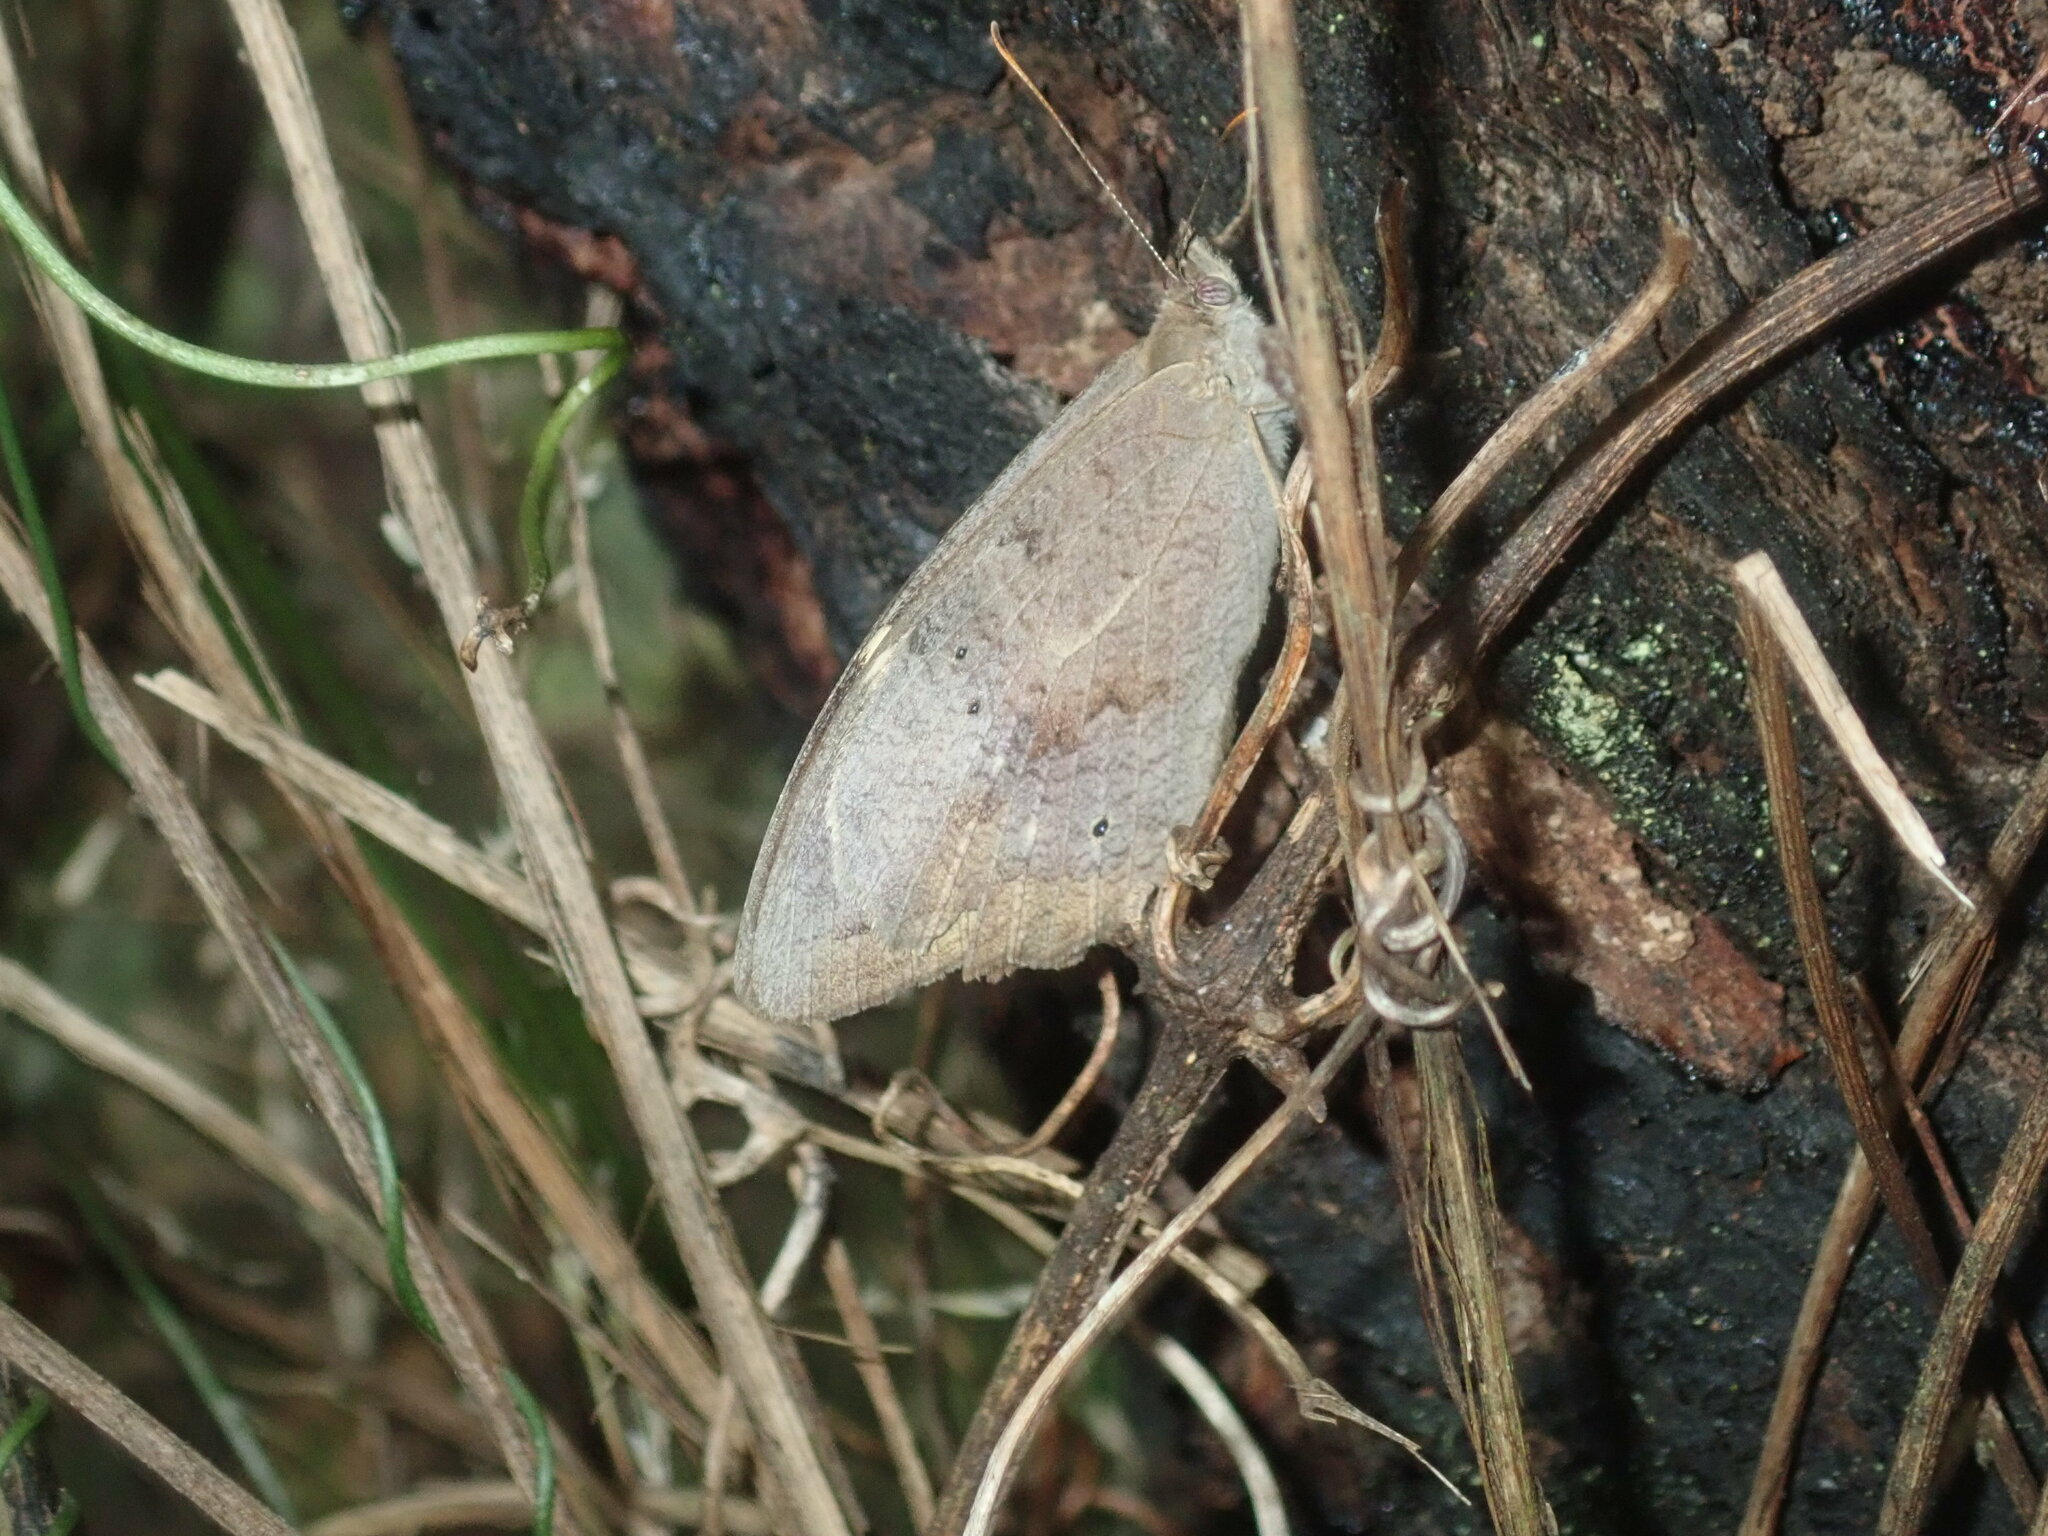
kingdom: Animalia
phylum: Arthropoda
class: Insecta
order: Lepidoptera
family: Nymphalidae
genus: Heteronympha
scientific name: Heteronympha merope
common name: Common brown
